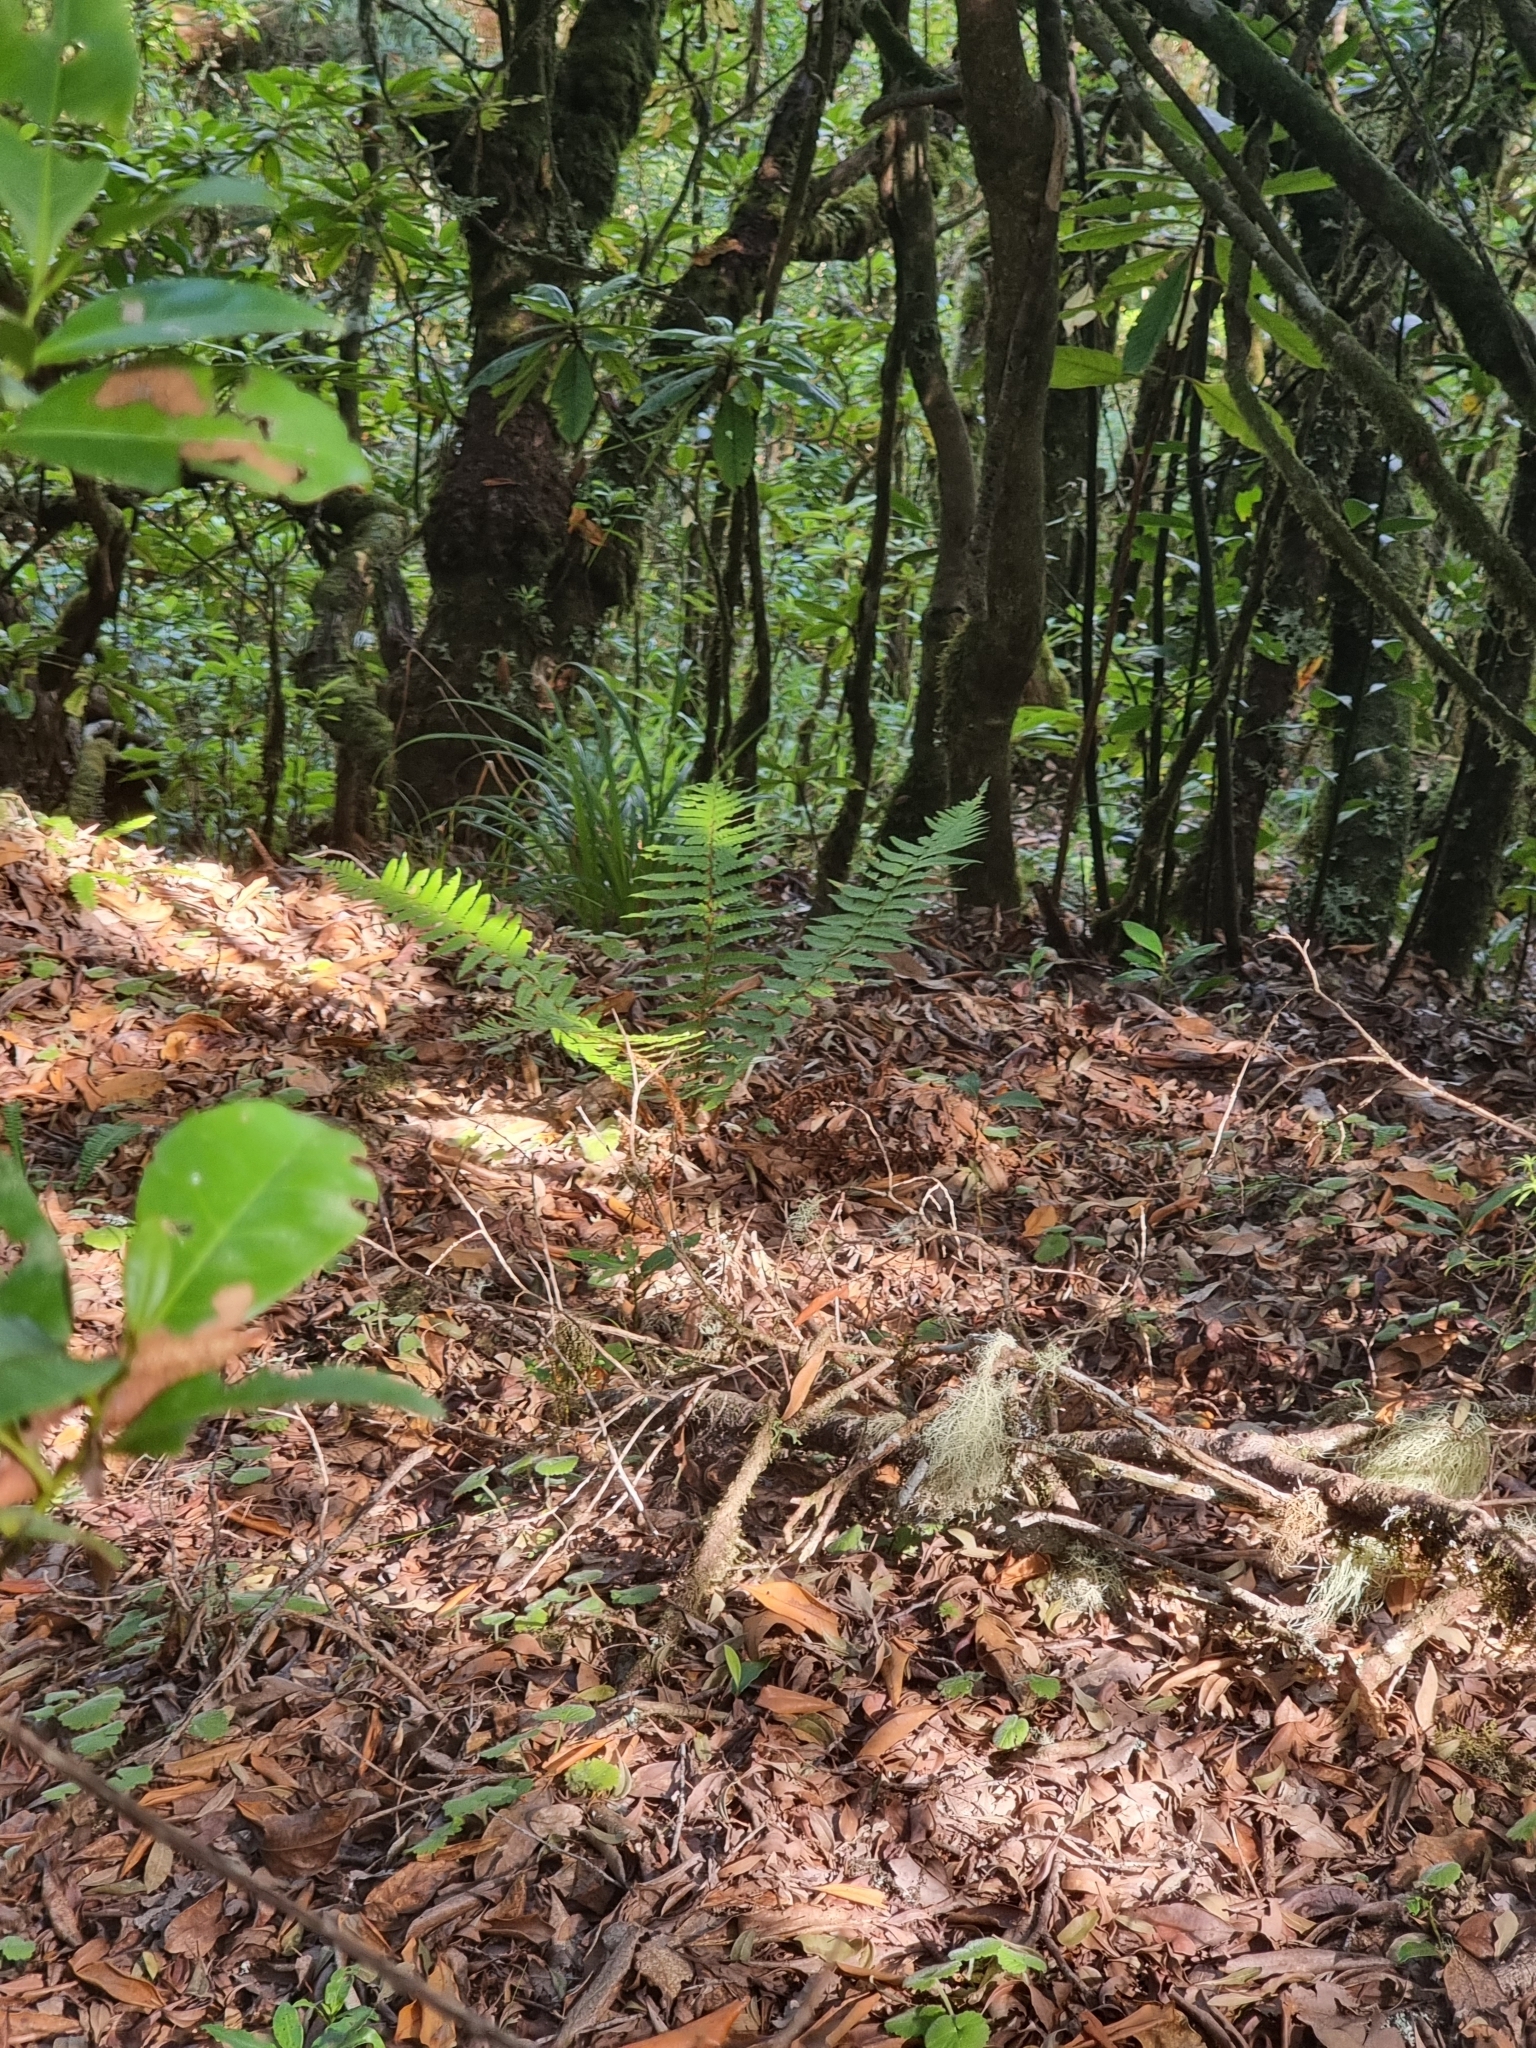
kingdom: Plantae
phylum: Tracheophyta
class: Polypodiopsida
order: Polypodiales
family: Dryopteridaceae
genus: Dryopteris
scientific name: Dryopteris affinis
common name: Scaly male fern
